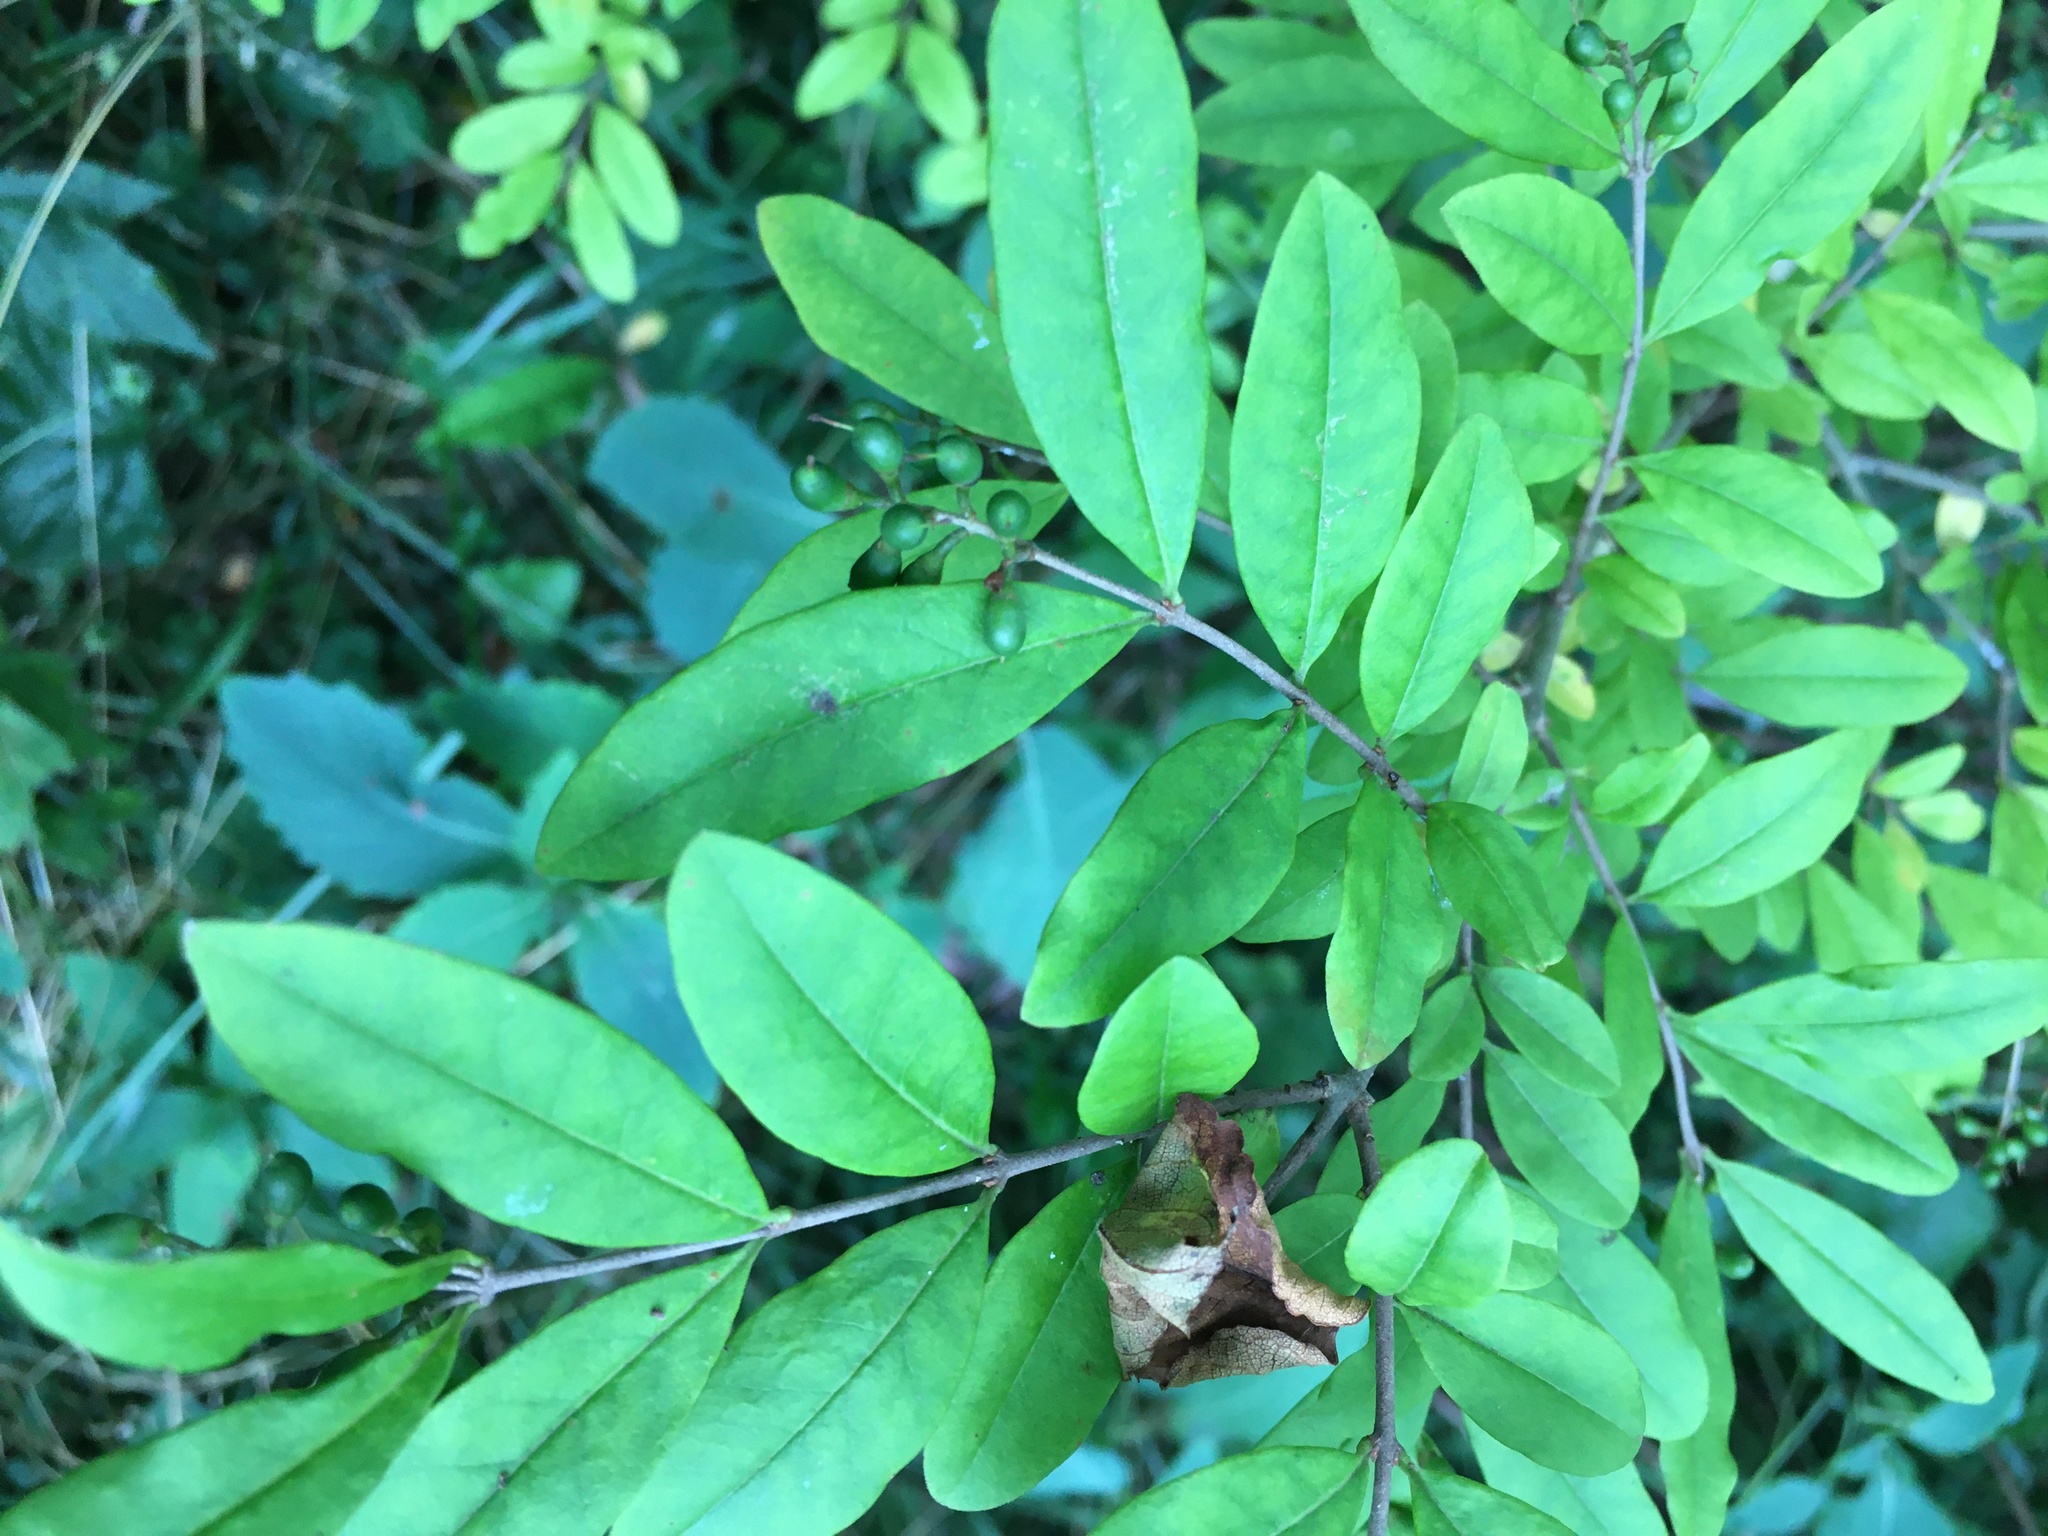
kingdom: Plantae
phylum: Tracheophyta
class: Magnoliopsida
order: Lamiales
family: Oleaceae
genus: Ligustrum
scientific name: Ligustrum obtusifolium
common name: Border privet
